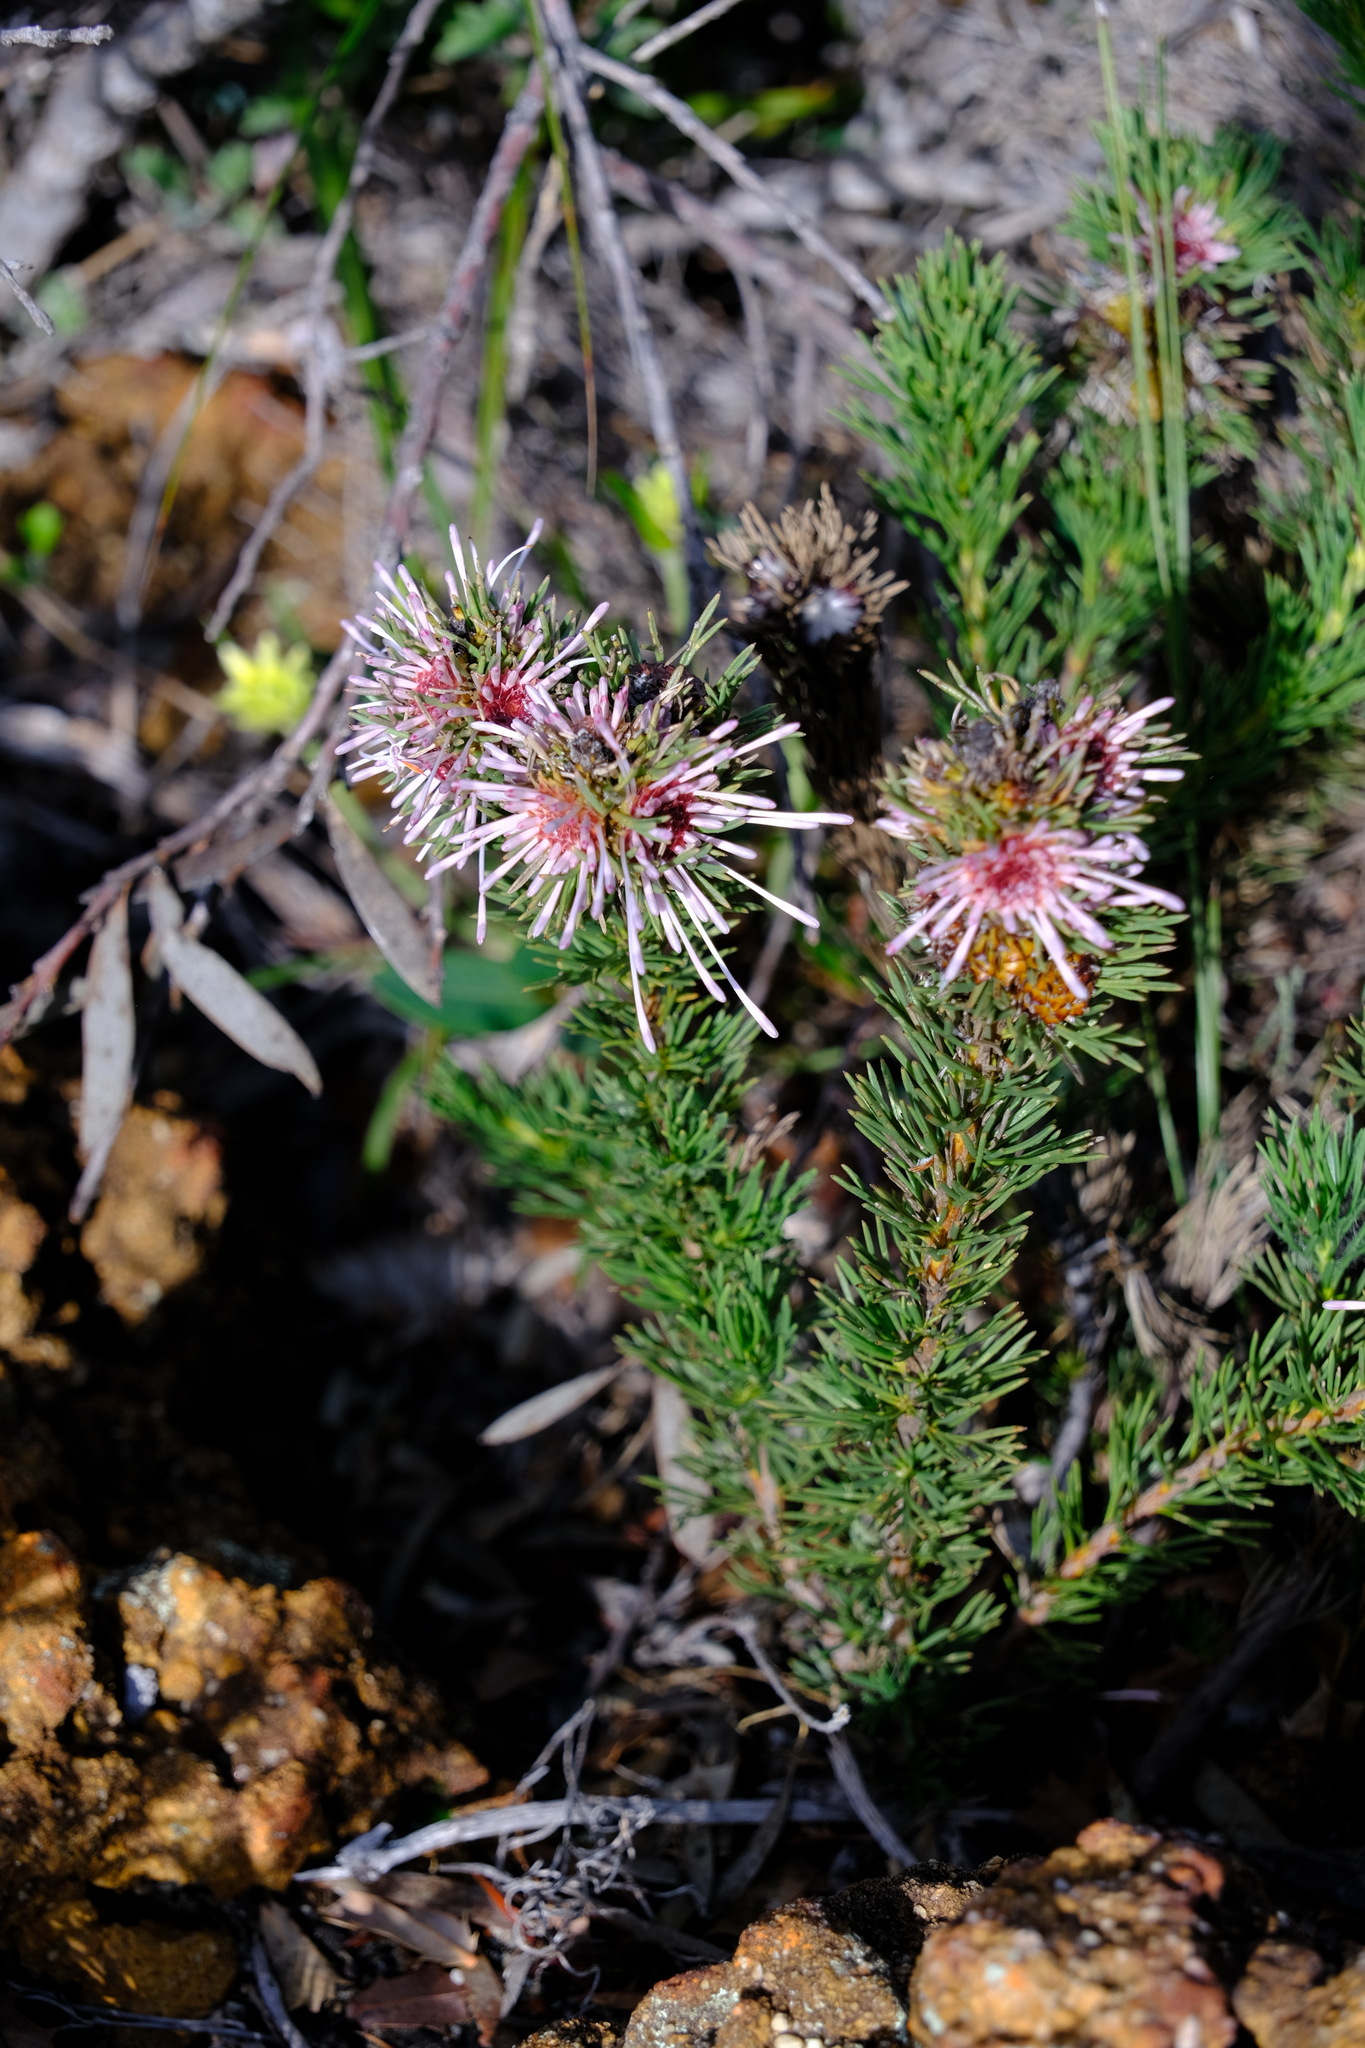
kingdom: Plantae
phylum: Tracheophyta
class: Magnoliopsida
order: Proteales
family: Proteaceae
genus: Isopogon
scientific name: Isopogon asper
